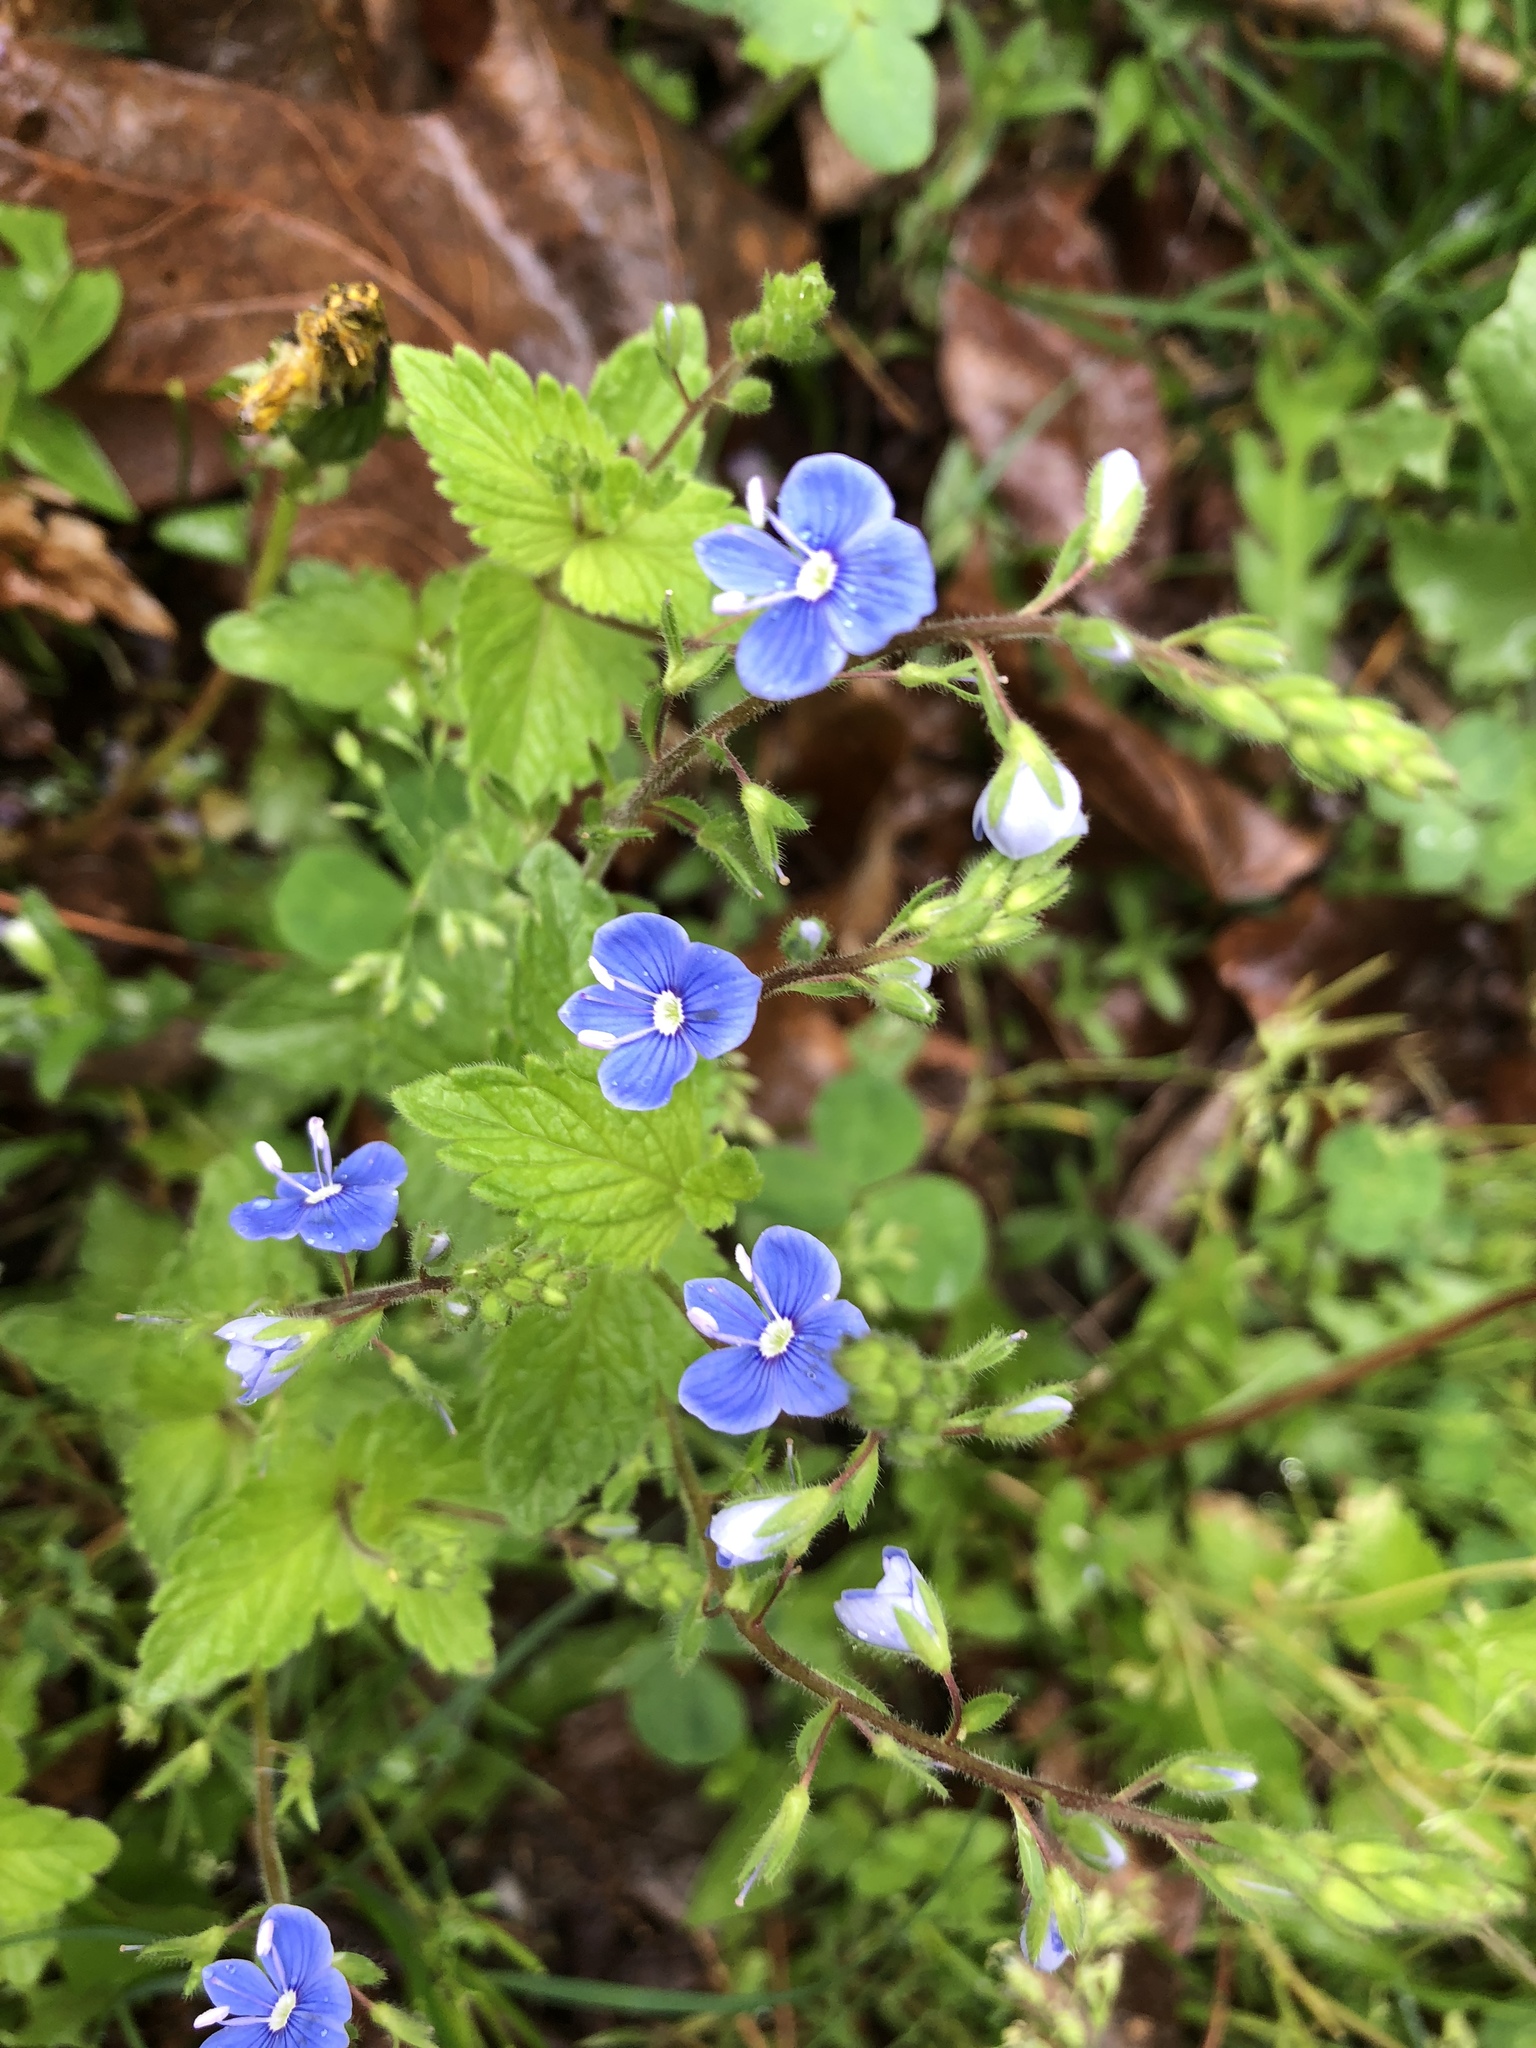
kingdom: Plantae
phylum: Tracheophyta
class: Magnoliopsida
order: Lamiales
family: Plantaginaceae
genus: Veronica
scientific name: Veronica chamaedrys
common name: Germander speedwell
